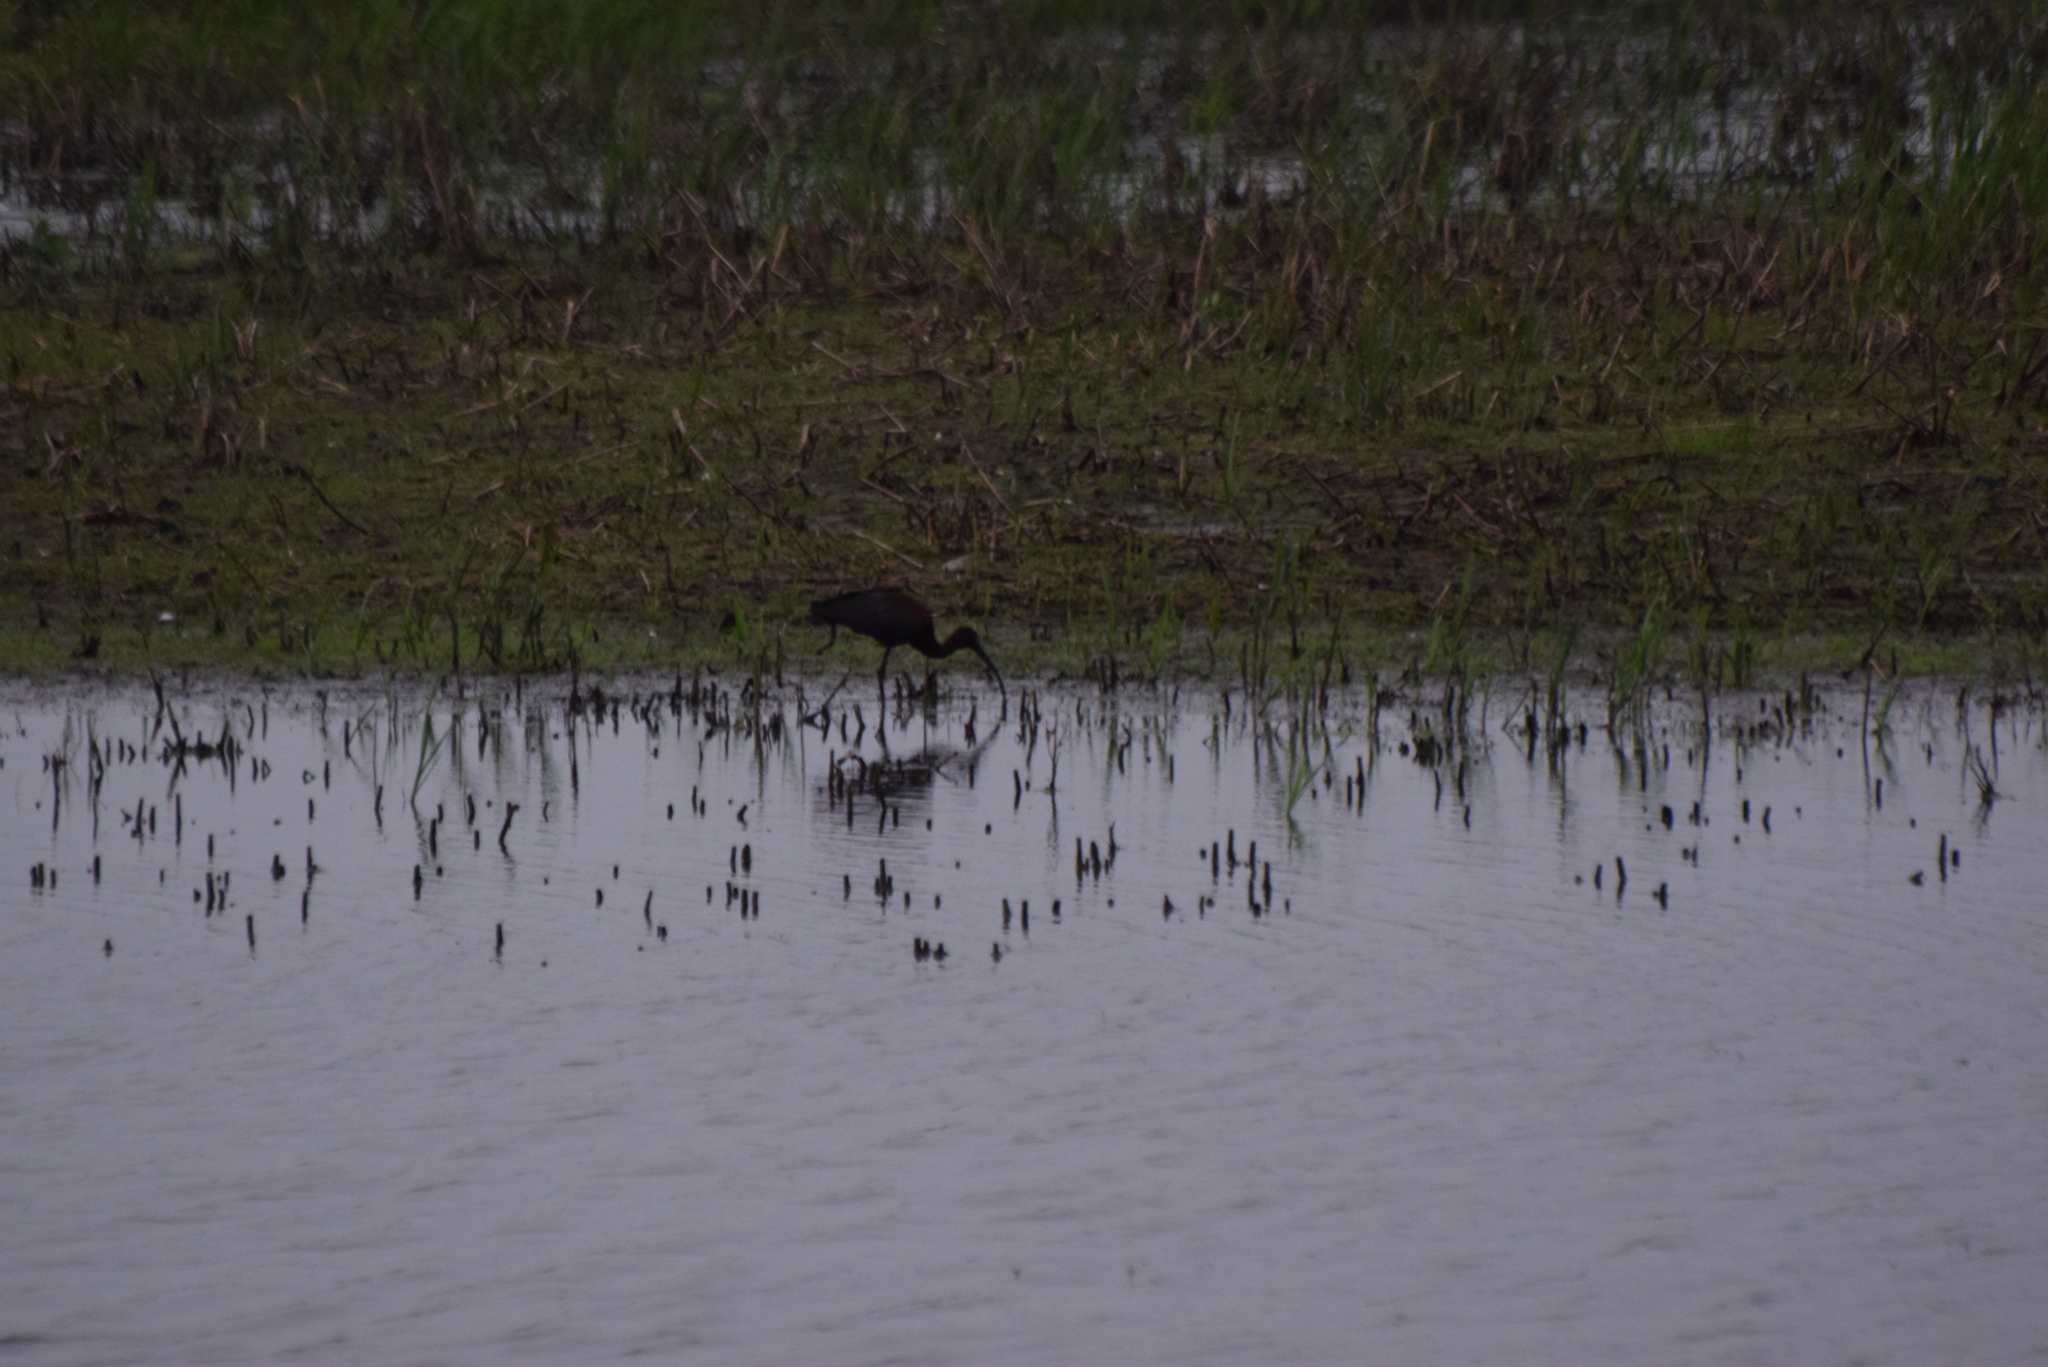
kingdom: Animalia
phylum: Chordata
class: Aves
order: Pelecaniformes
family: Threskiornithidae
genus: Plegadis
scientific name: Plegadis falcinellus
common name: Glossy ibis
